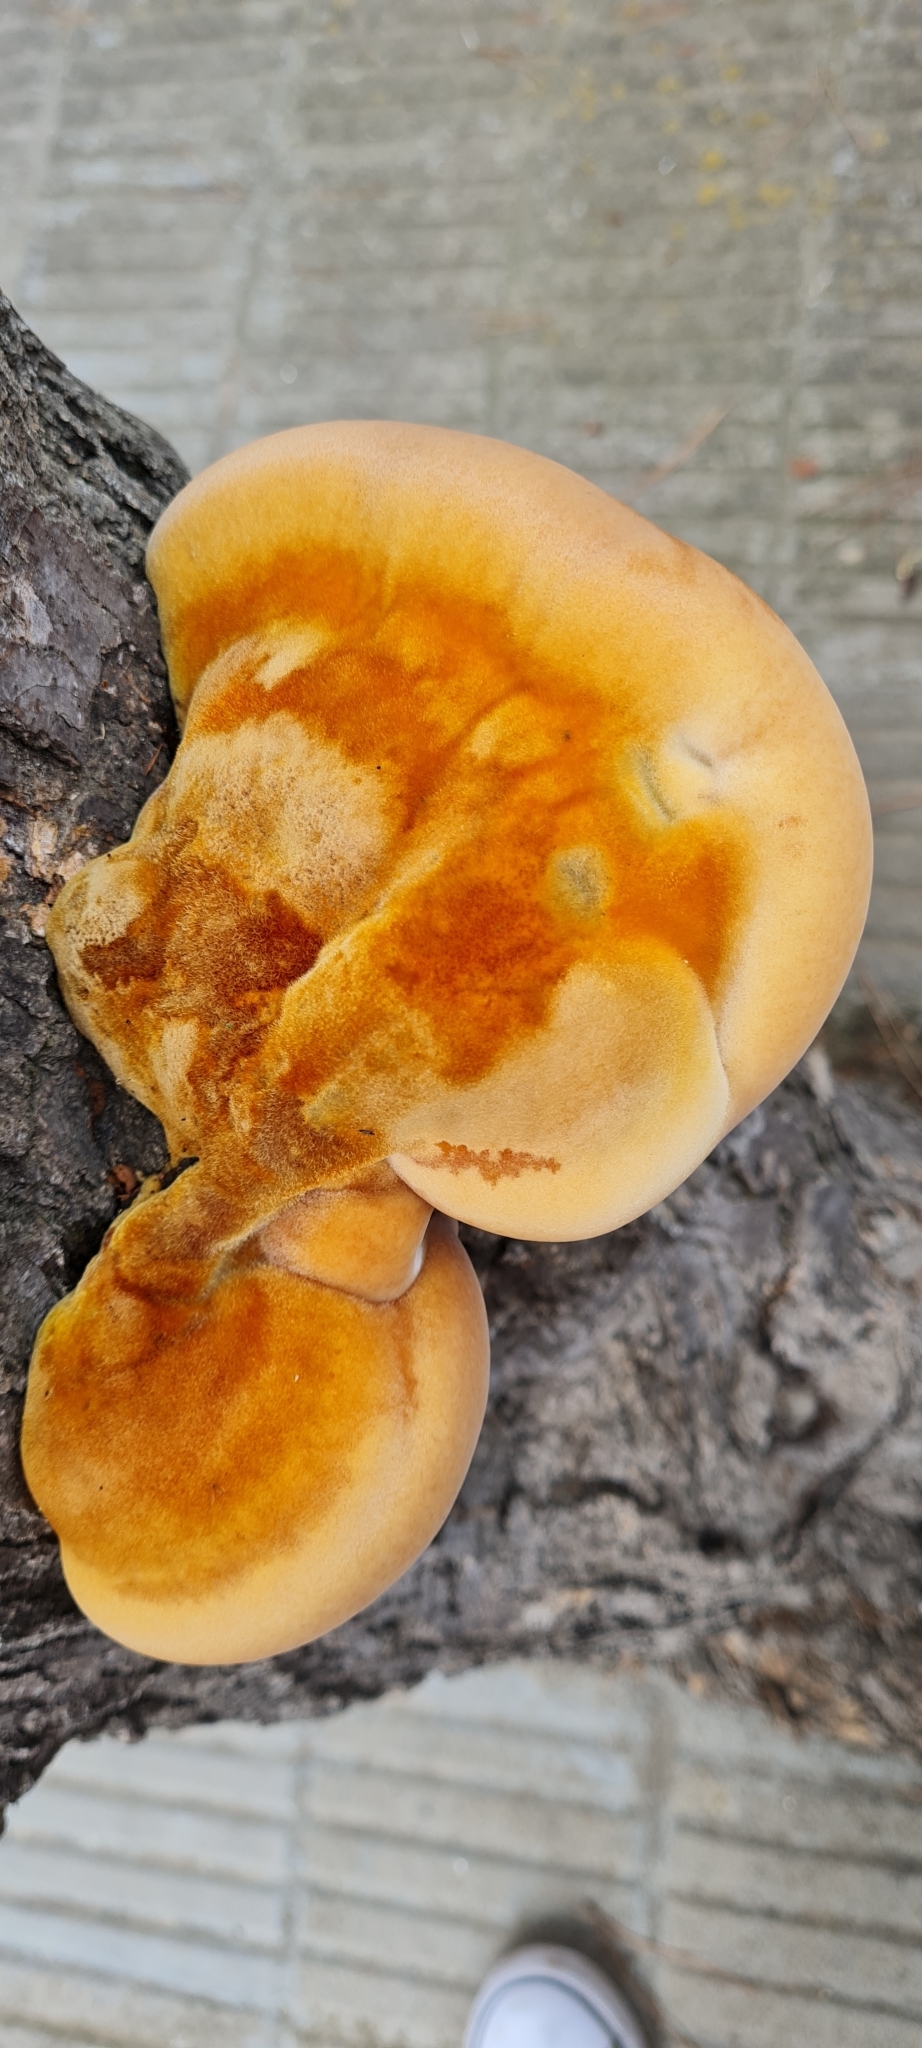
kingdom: Fungi
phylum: Basidiomycota
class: Agaricomycetes
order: Hymenochaetales
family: Hymenochaetaceae
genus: Inonotus
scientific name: Inonotus hispidus
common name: Shaggy bracket
